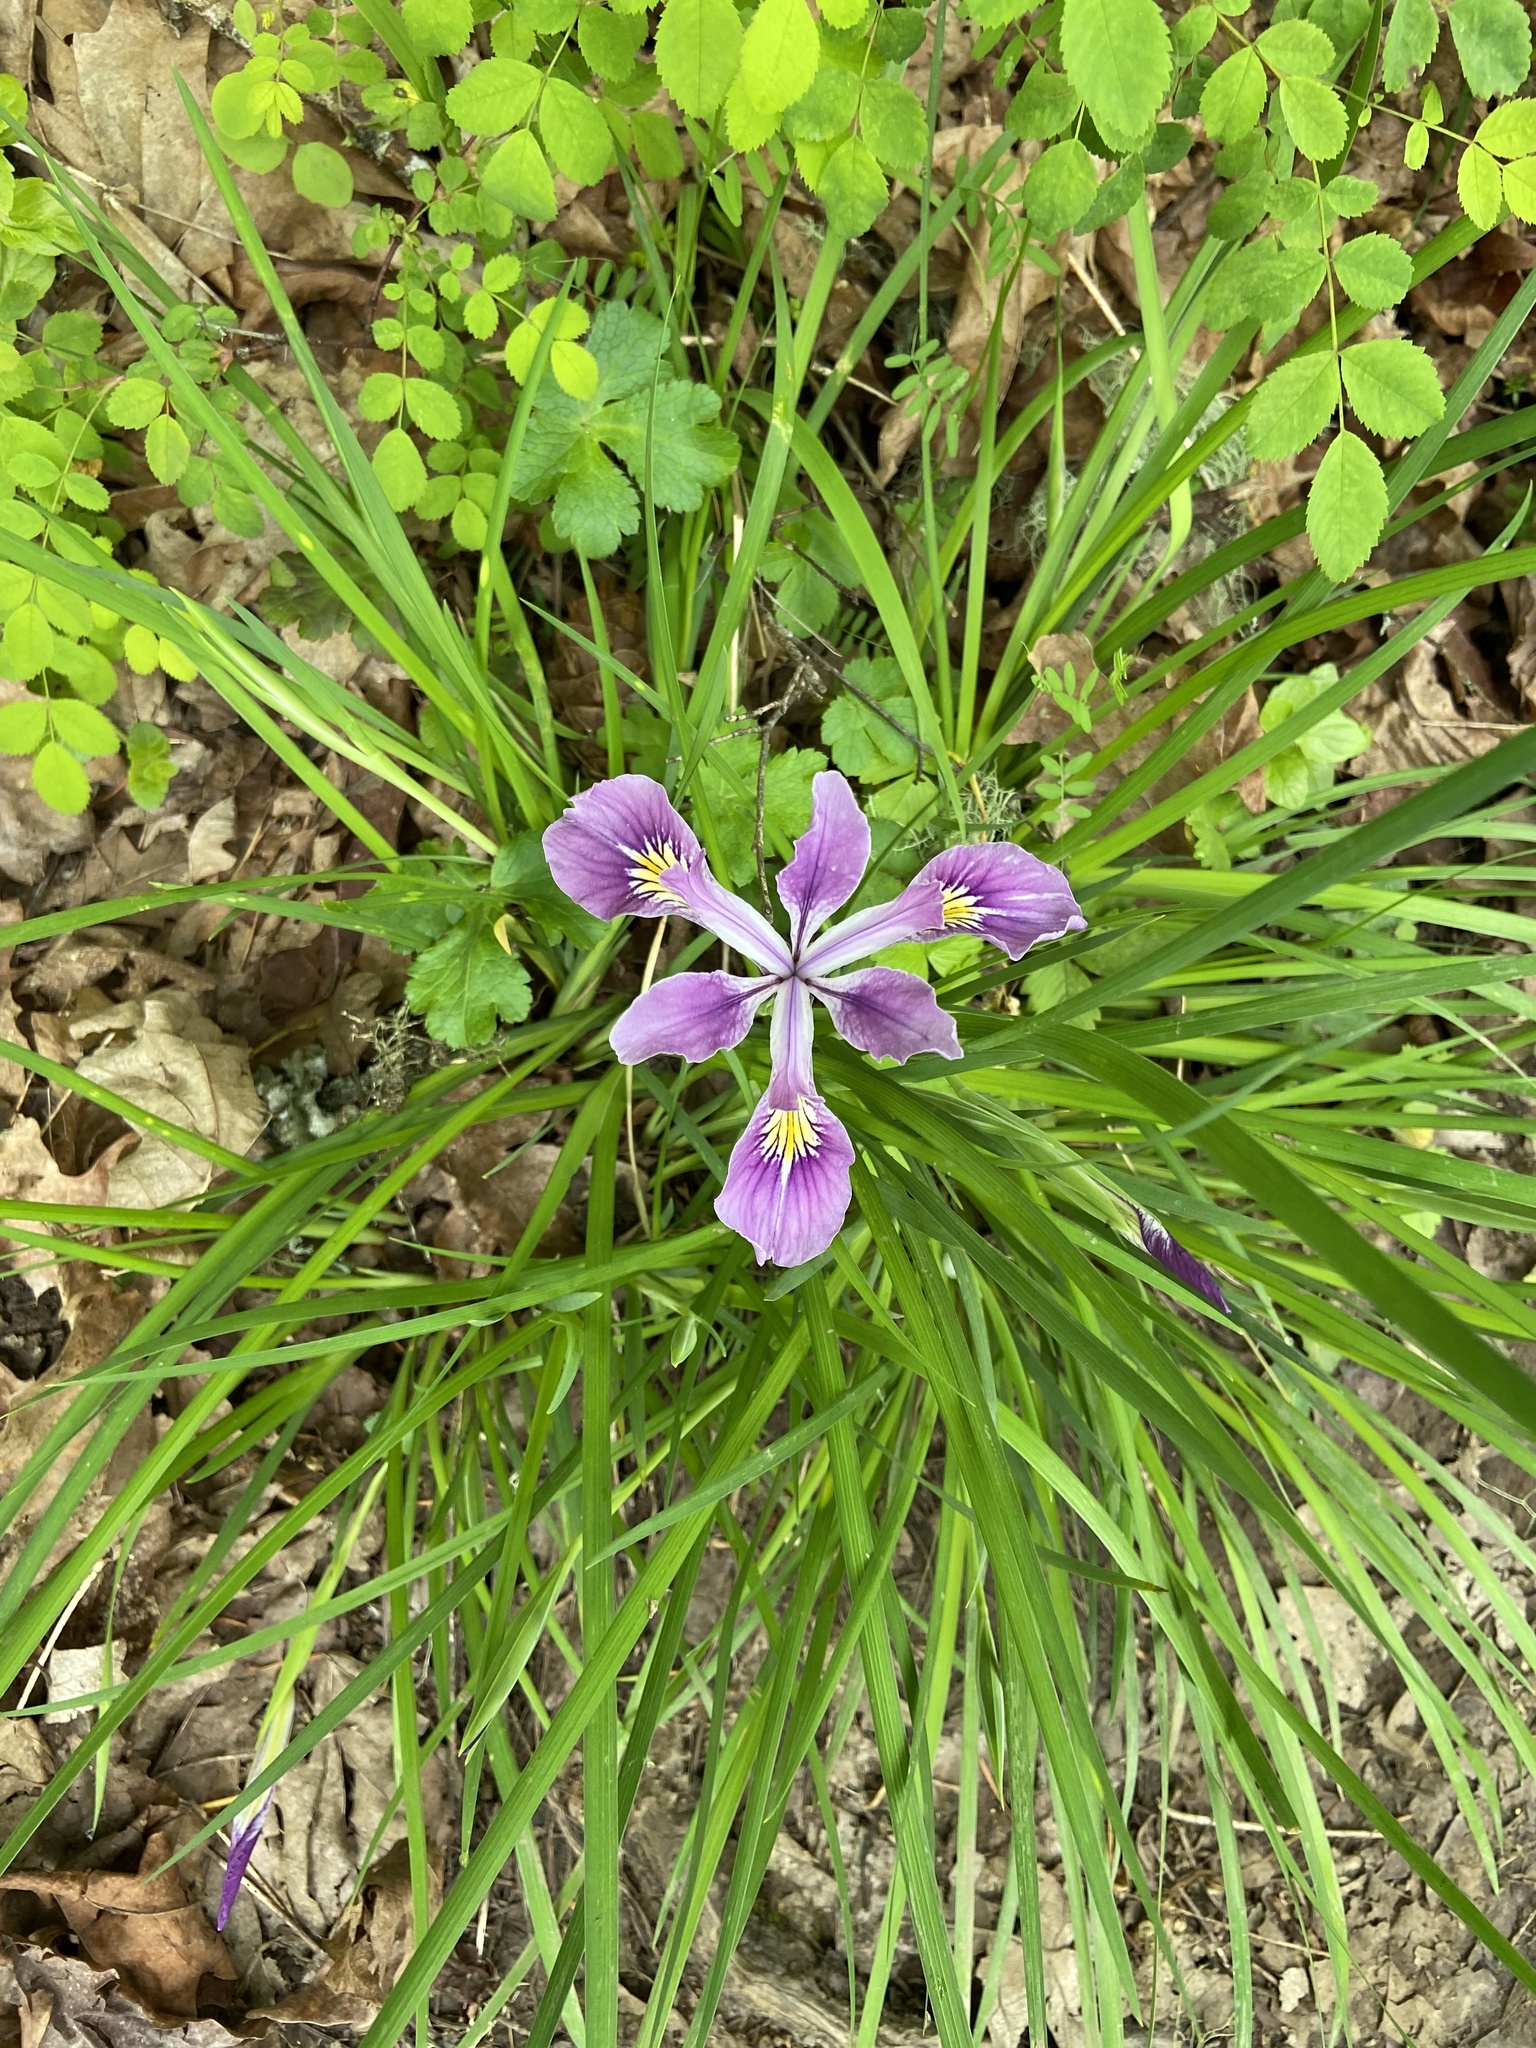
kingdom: Plantae
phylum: Tracheophyta
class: Liliopsida
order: Asparagales
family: Iridaceae
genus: Iris
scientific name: Iris tenax
